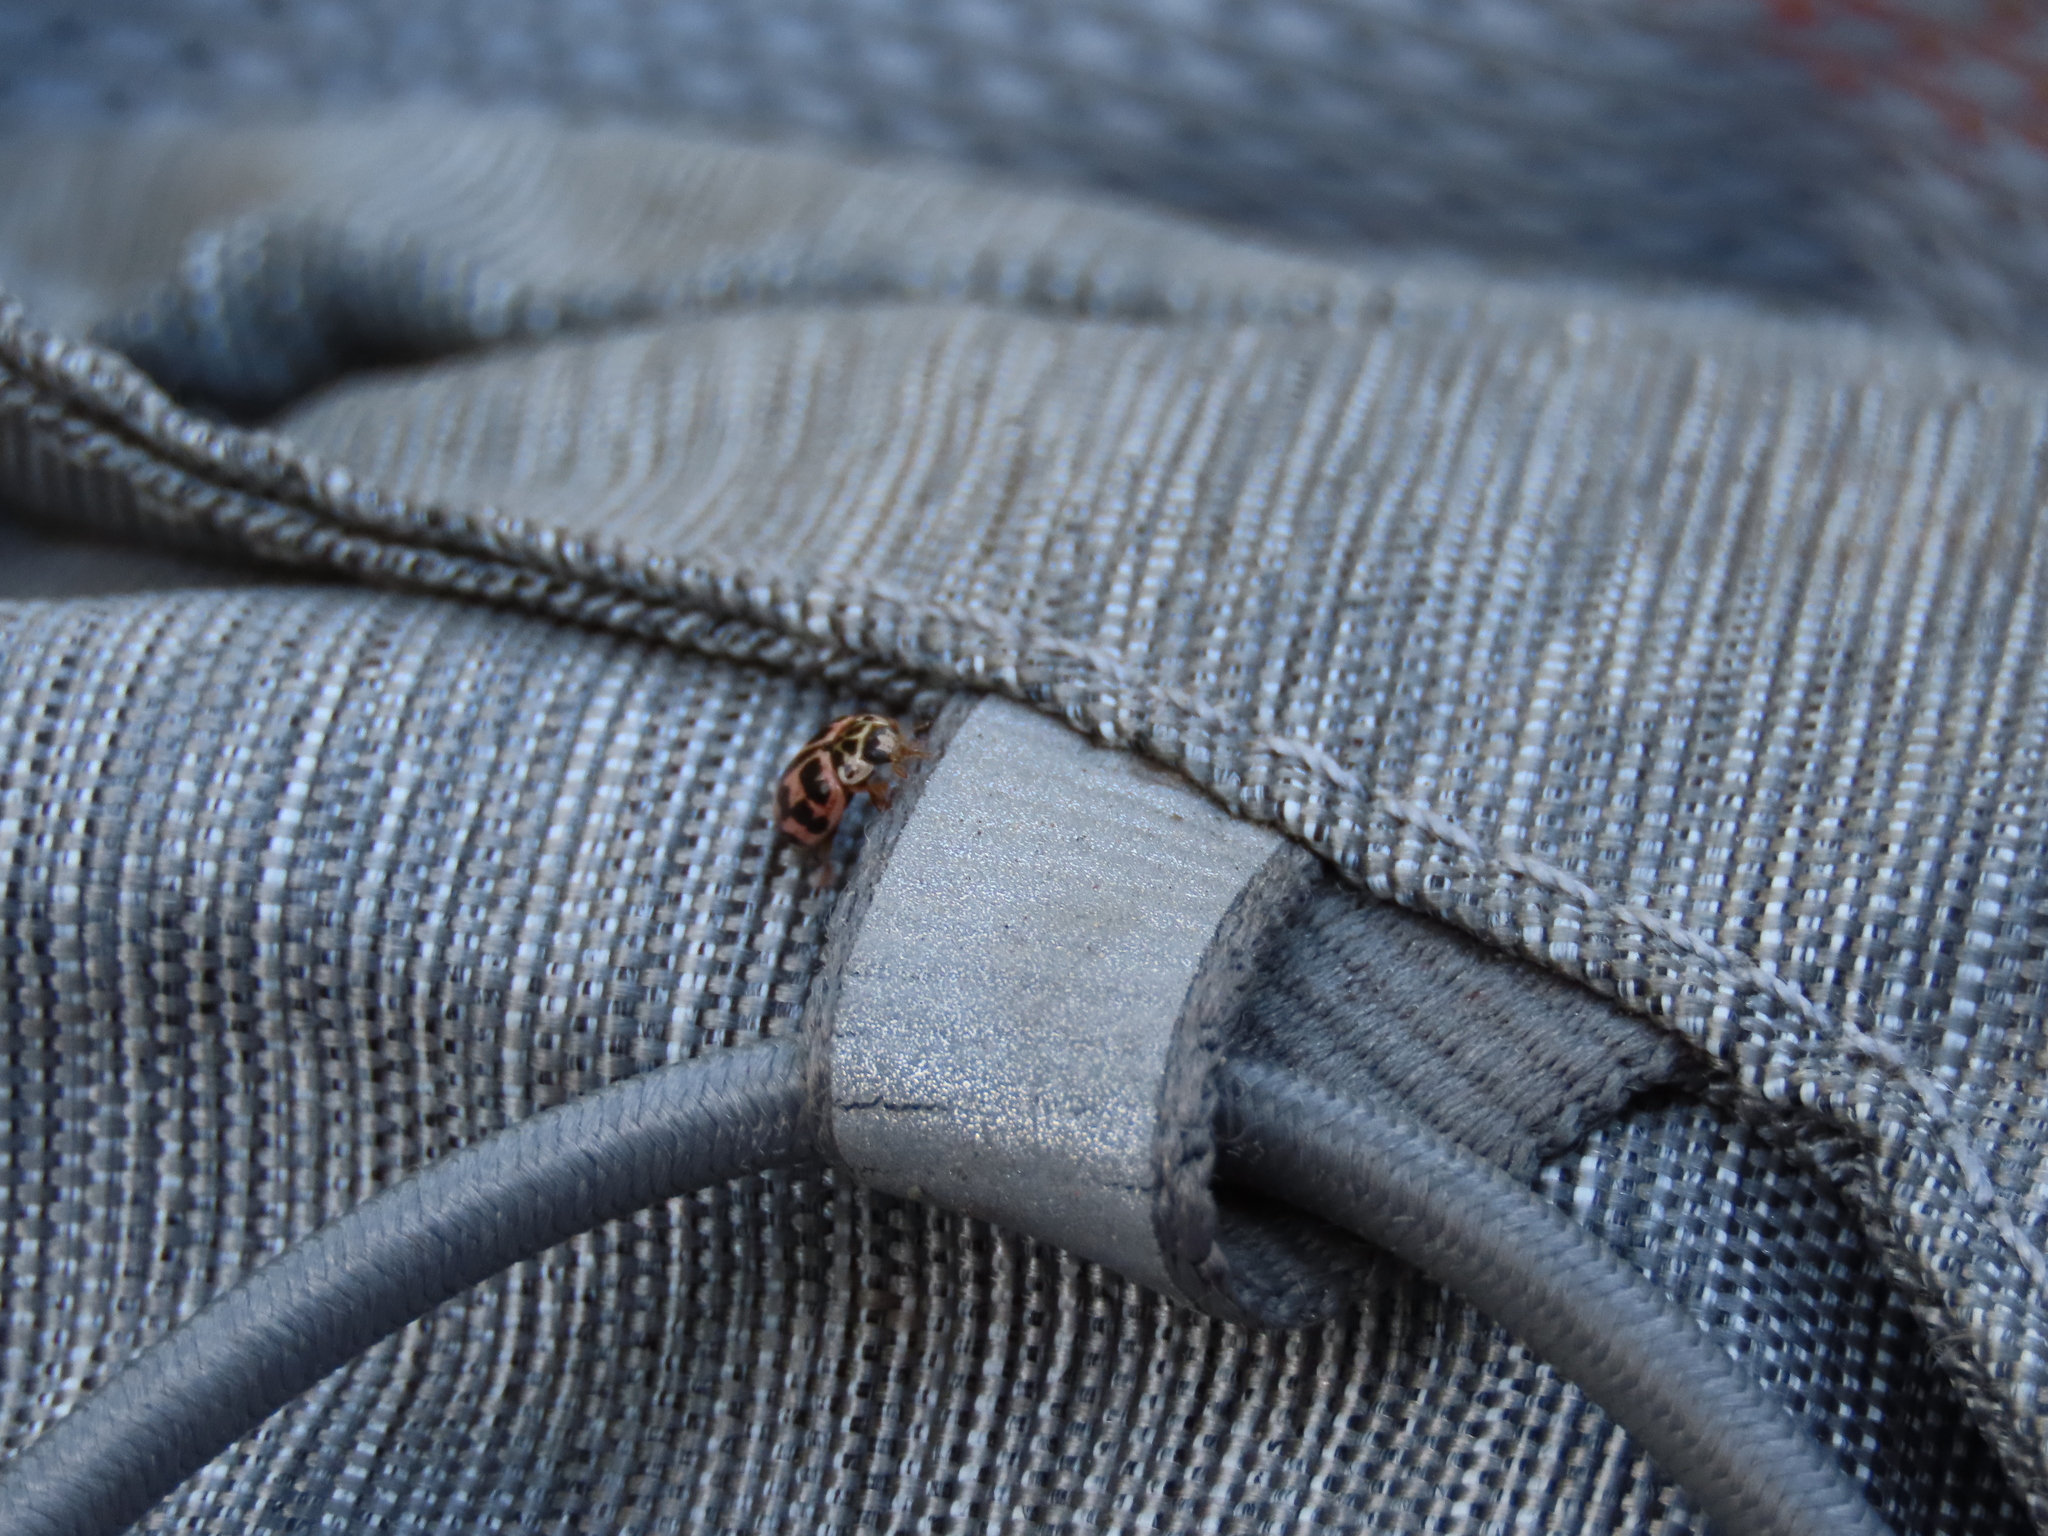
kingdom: Animalia
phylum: Arthropoda
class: Insecta
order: Coleoptera
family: Coccinellidae
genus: Oenopia
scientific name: Oenopia conglobata
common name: Ladybird beetle
